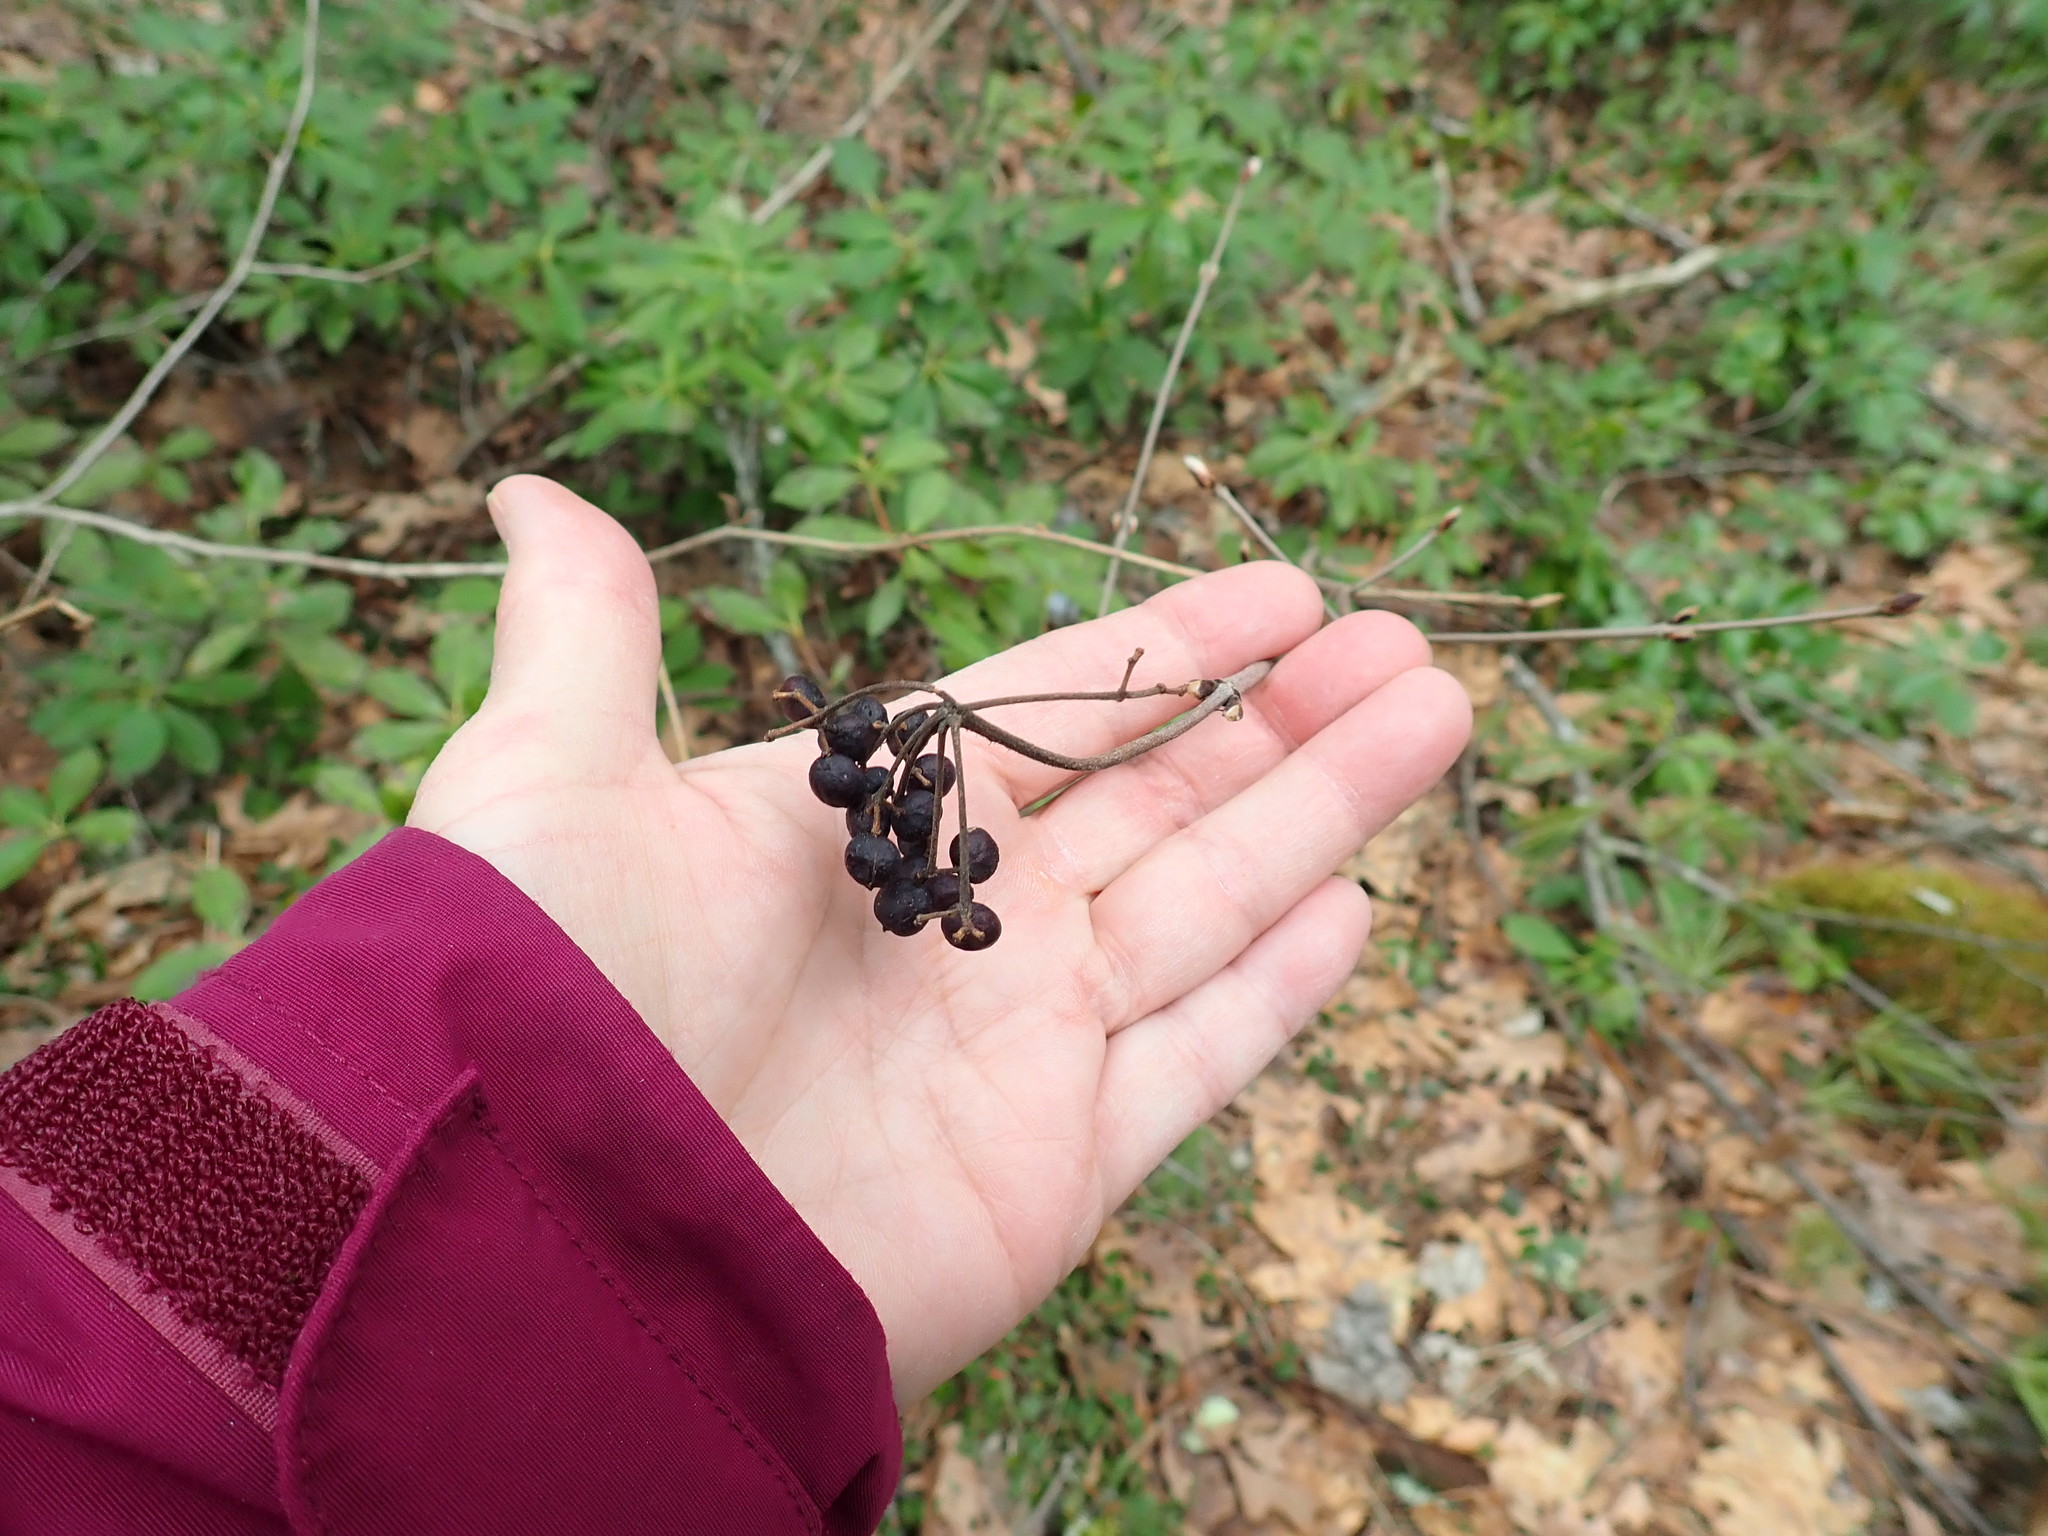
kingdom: Plantae
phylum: Tracheophyta
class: Magnoliopsida
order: Dipsacales
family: Viburnaceae
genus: Viburnum
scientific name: Viburnum acerifolium
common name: Dockmackie
